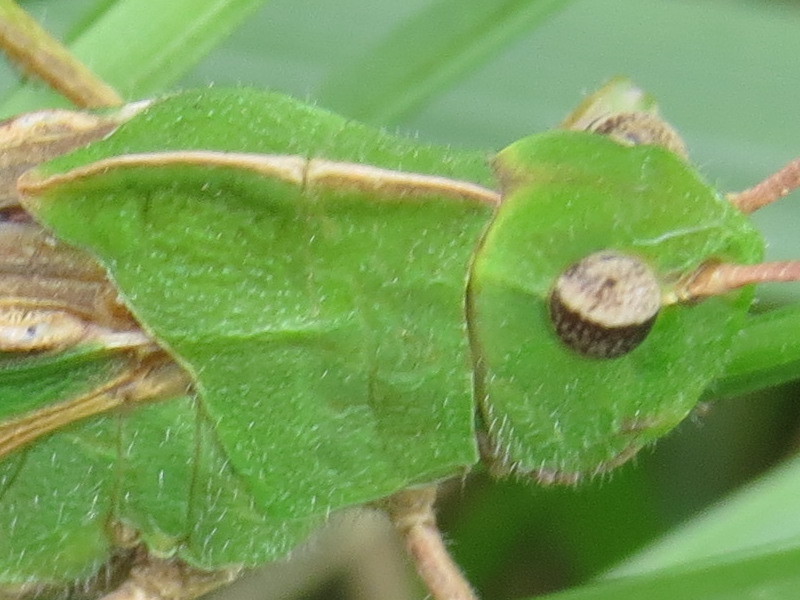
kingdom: Animalia
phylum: Arthropoda
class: Insecta
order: Orthoptera
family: Acrididae
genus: Chortophaga
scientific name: Chortophaga viridifasciata
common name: Green-striped grasshopper
